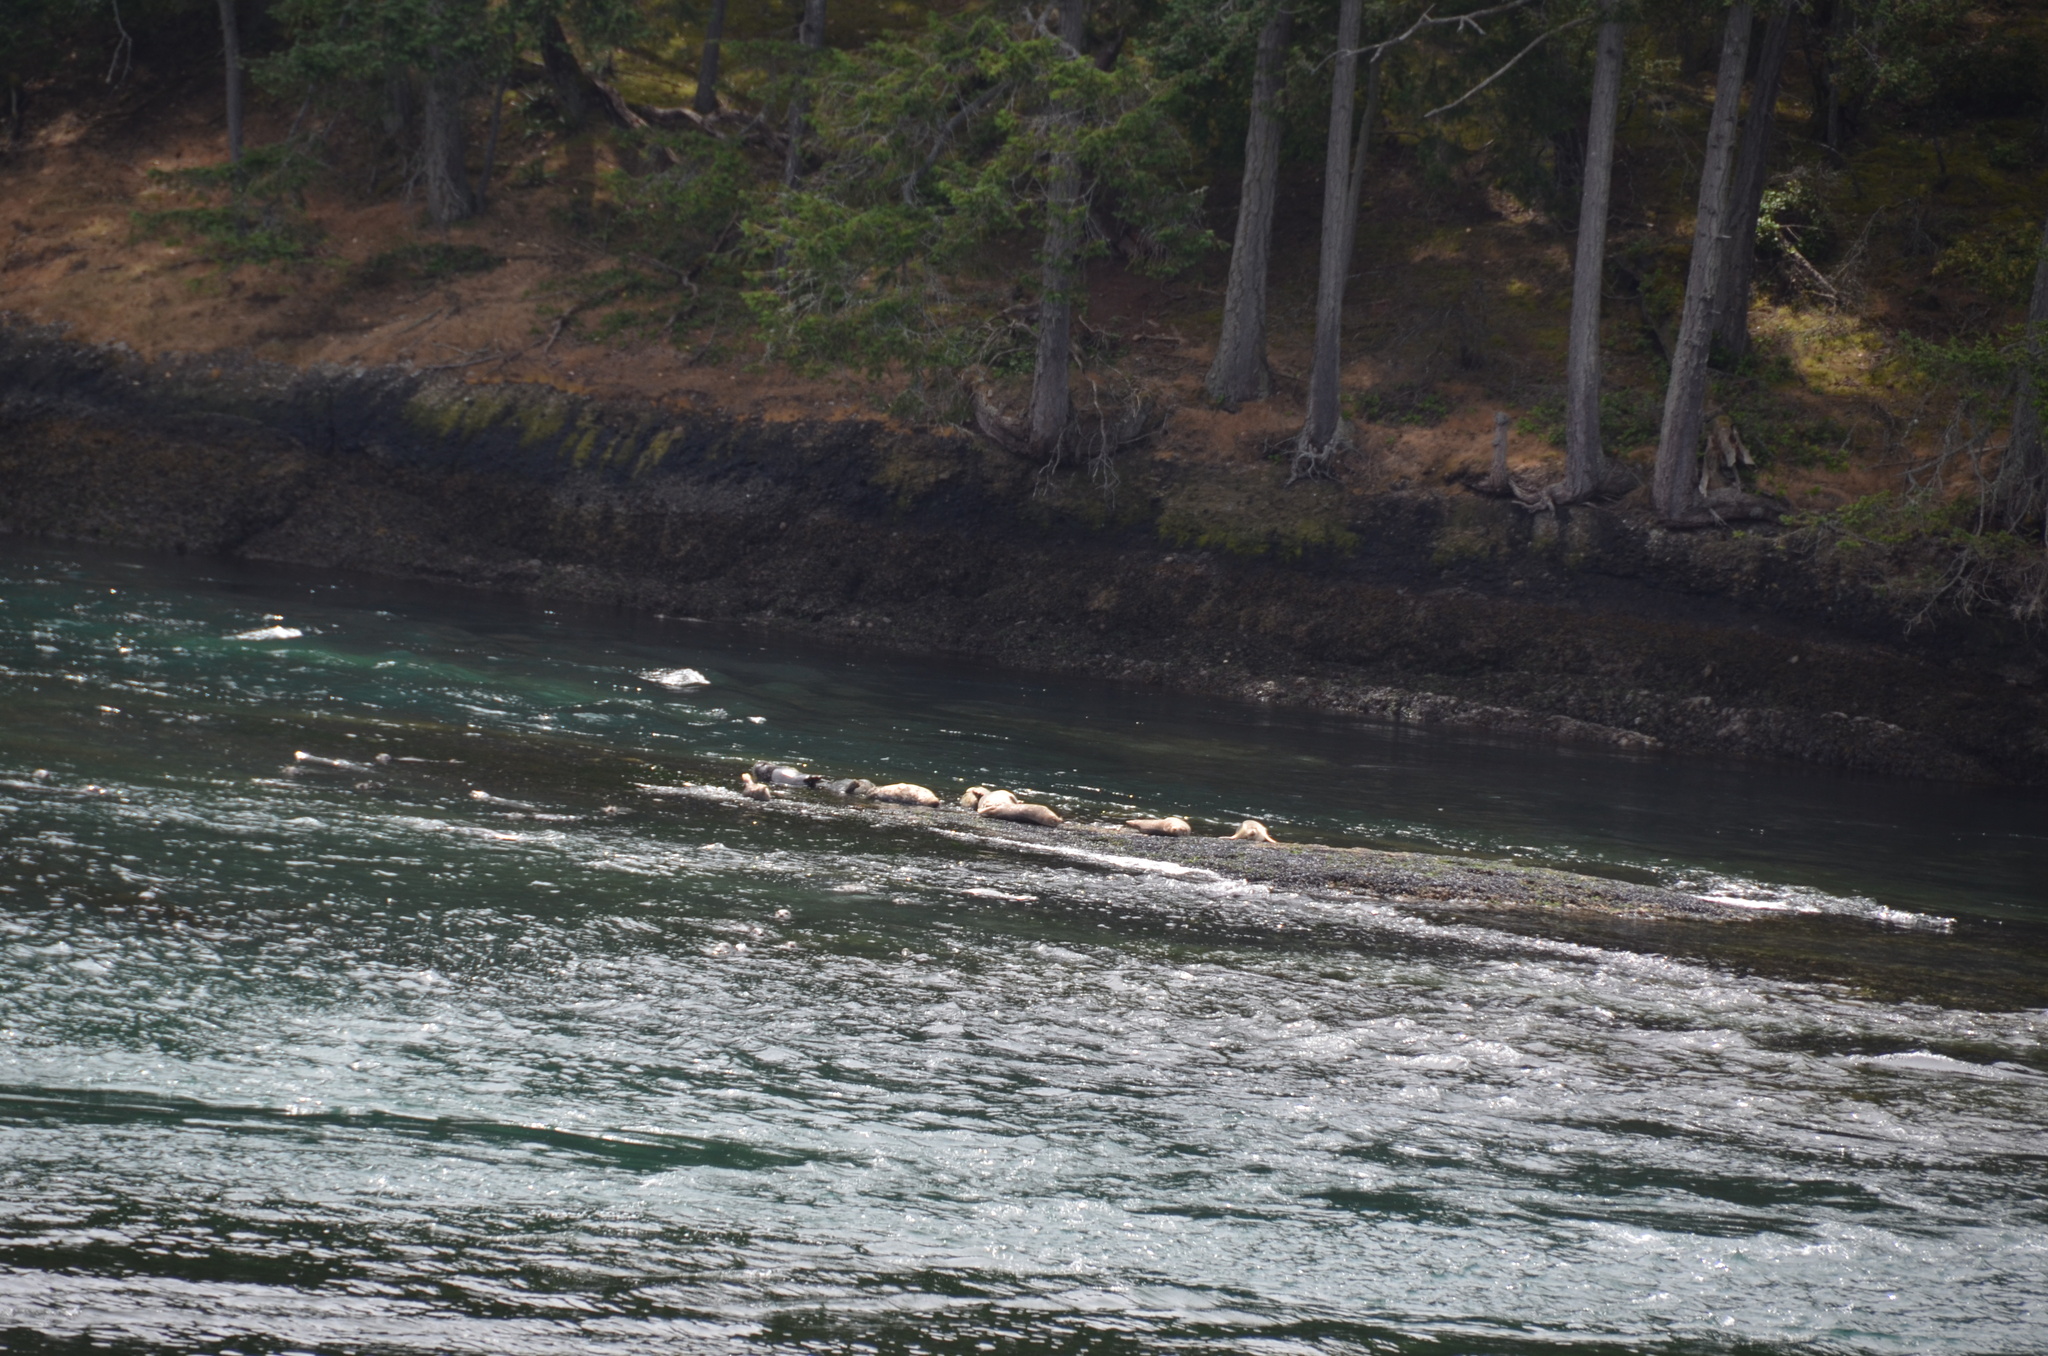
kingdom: Animalia
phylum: Chordata
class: Mammalia
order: Carnivora
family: Phocidae
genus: Phoca
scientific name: Phoca vitulina
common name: Harbor seal
